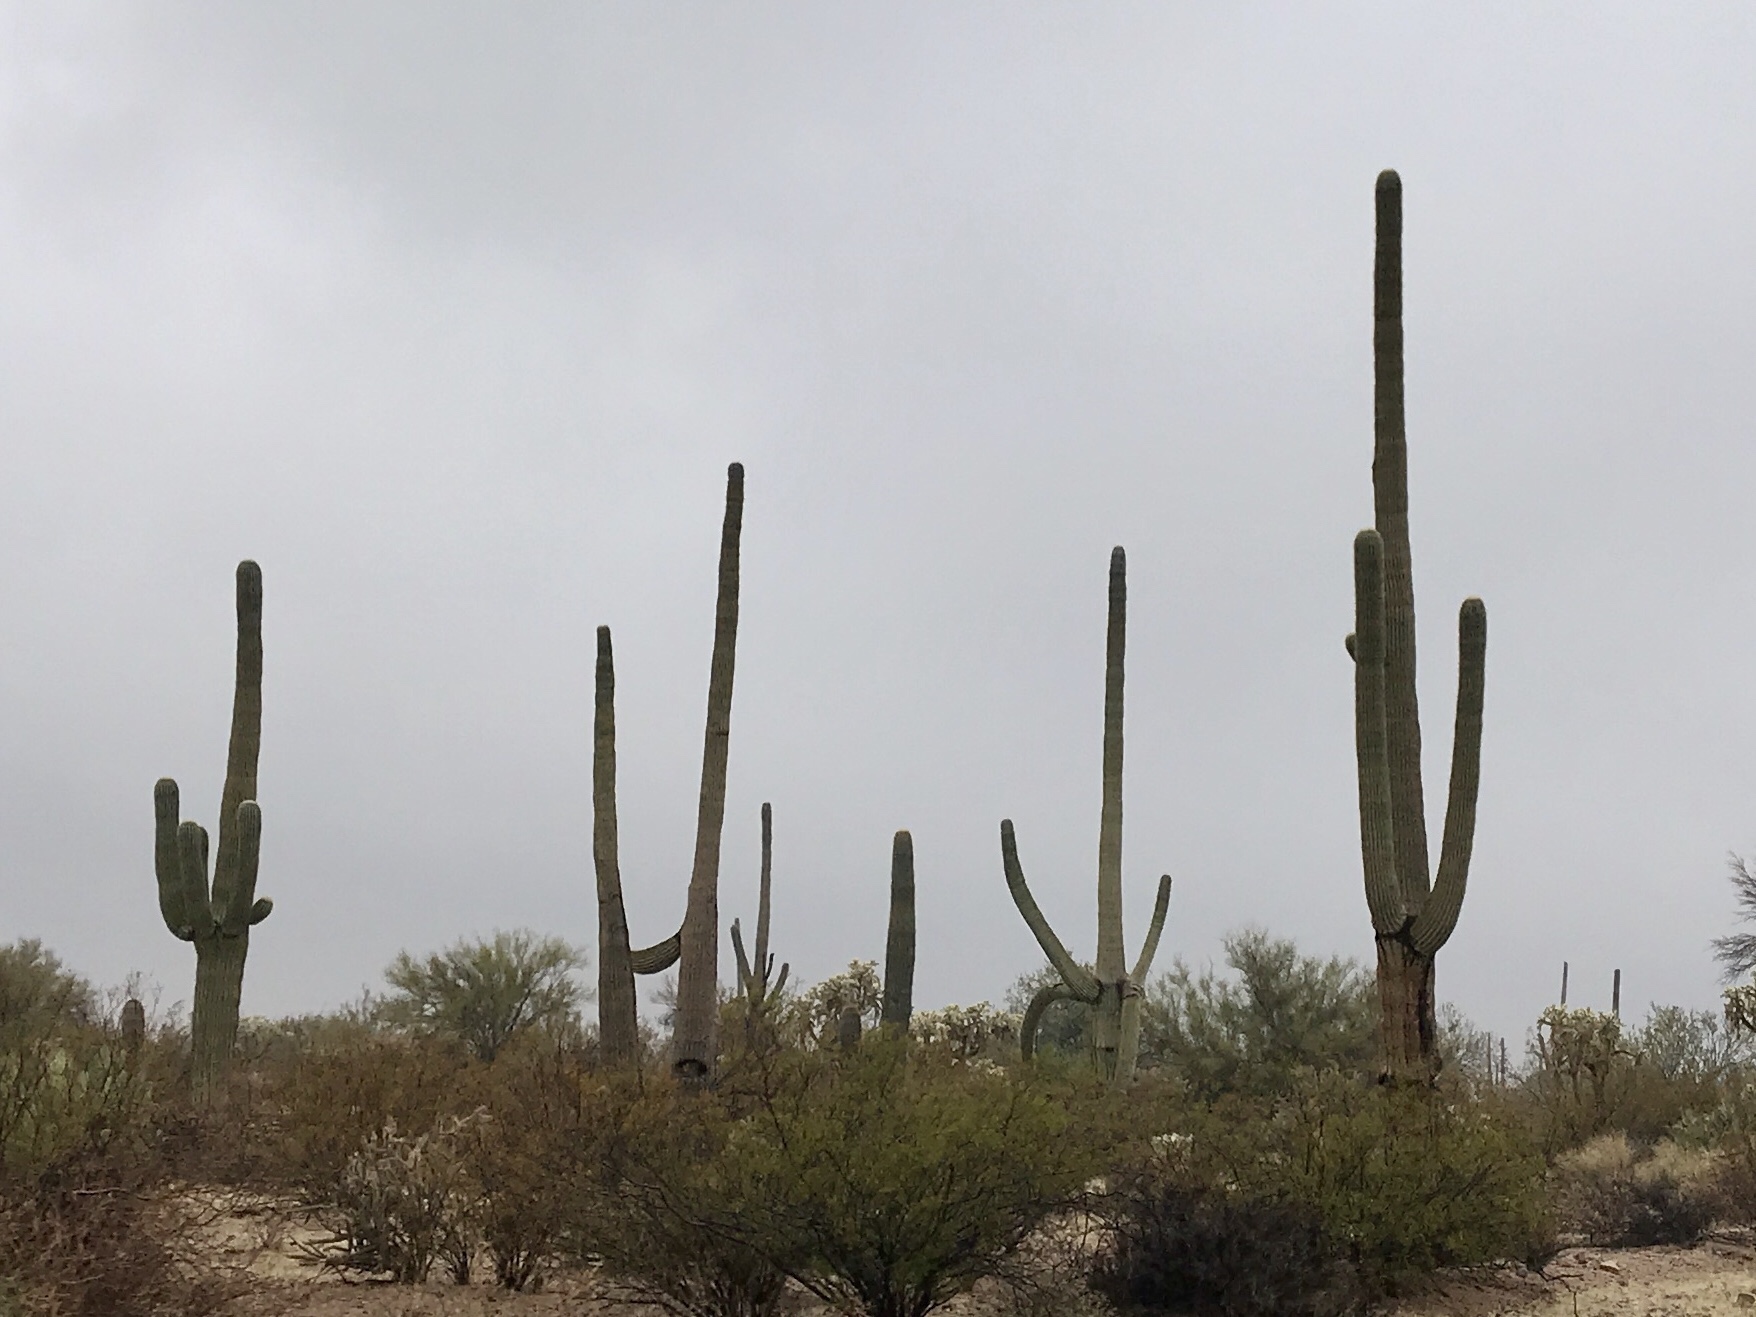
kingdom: Plantae
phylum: Tracheophyta
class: Magnoliopsida
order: Caryophyllales
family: Cactaceae
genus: Carnegiea
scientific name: Carnegiea gigantea
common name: Saguaro
